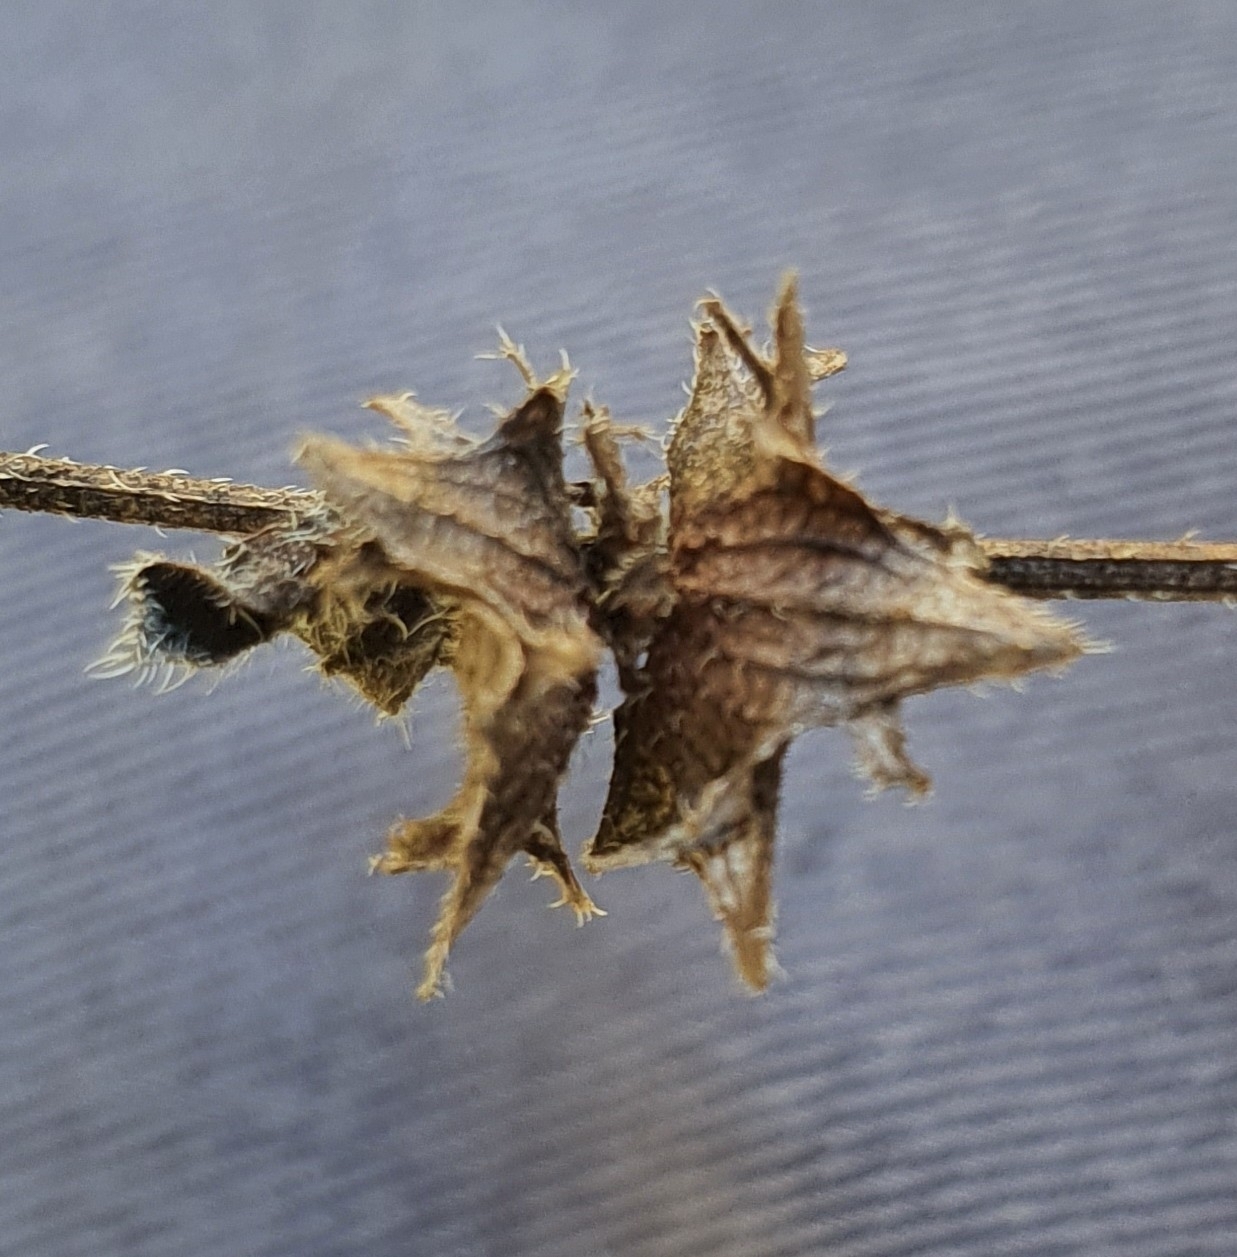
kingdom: Plantae
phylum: Tracheophyta
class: Magnoliopsida
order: Boraginales
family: Boraginaceae
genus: Asperugo
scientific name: Asperugo procumbens
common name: Madwort
